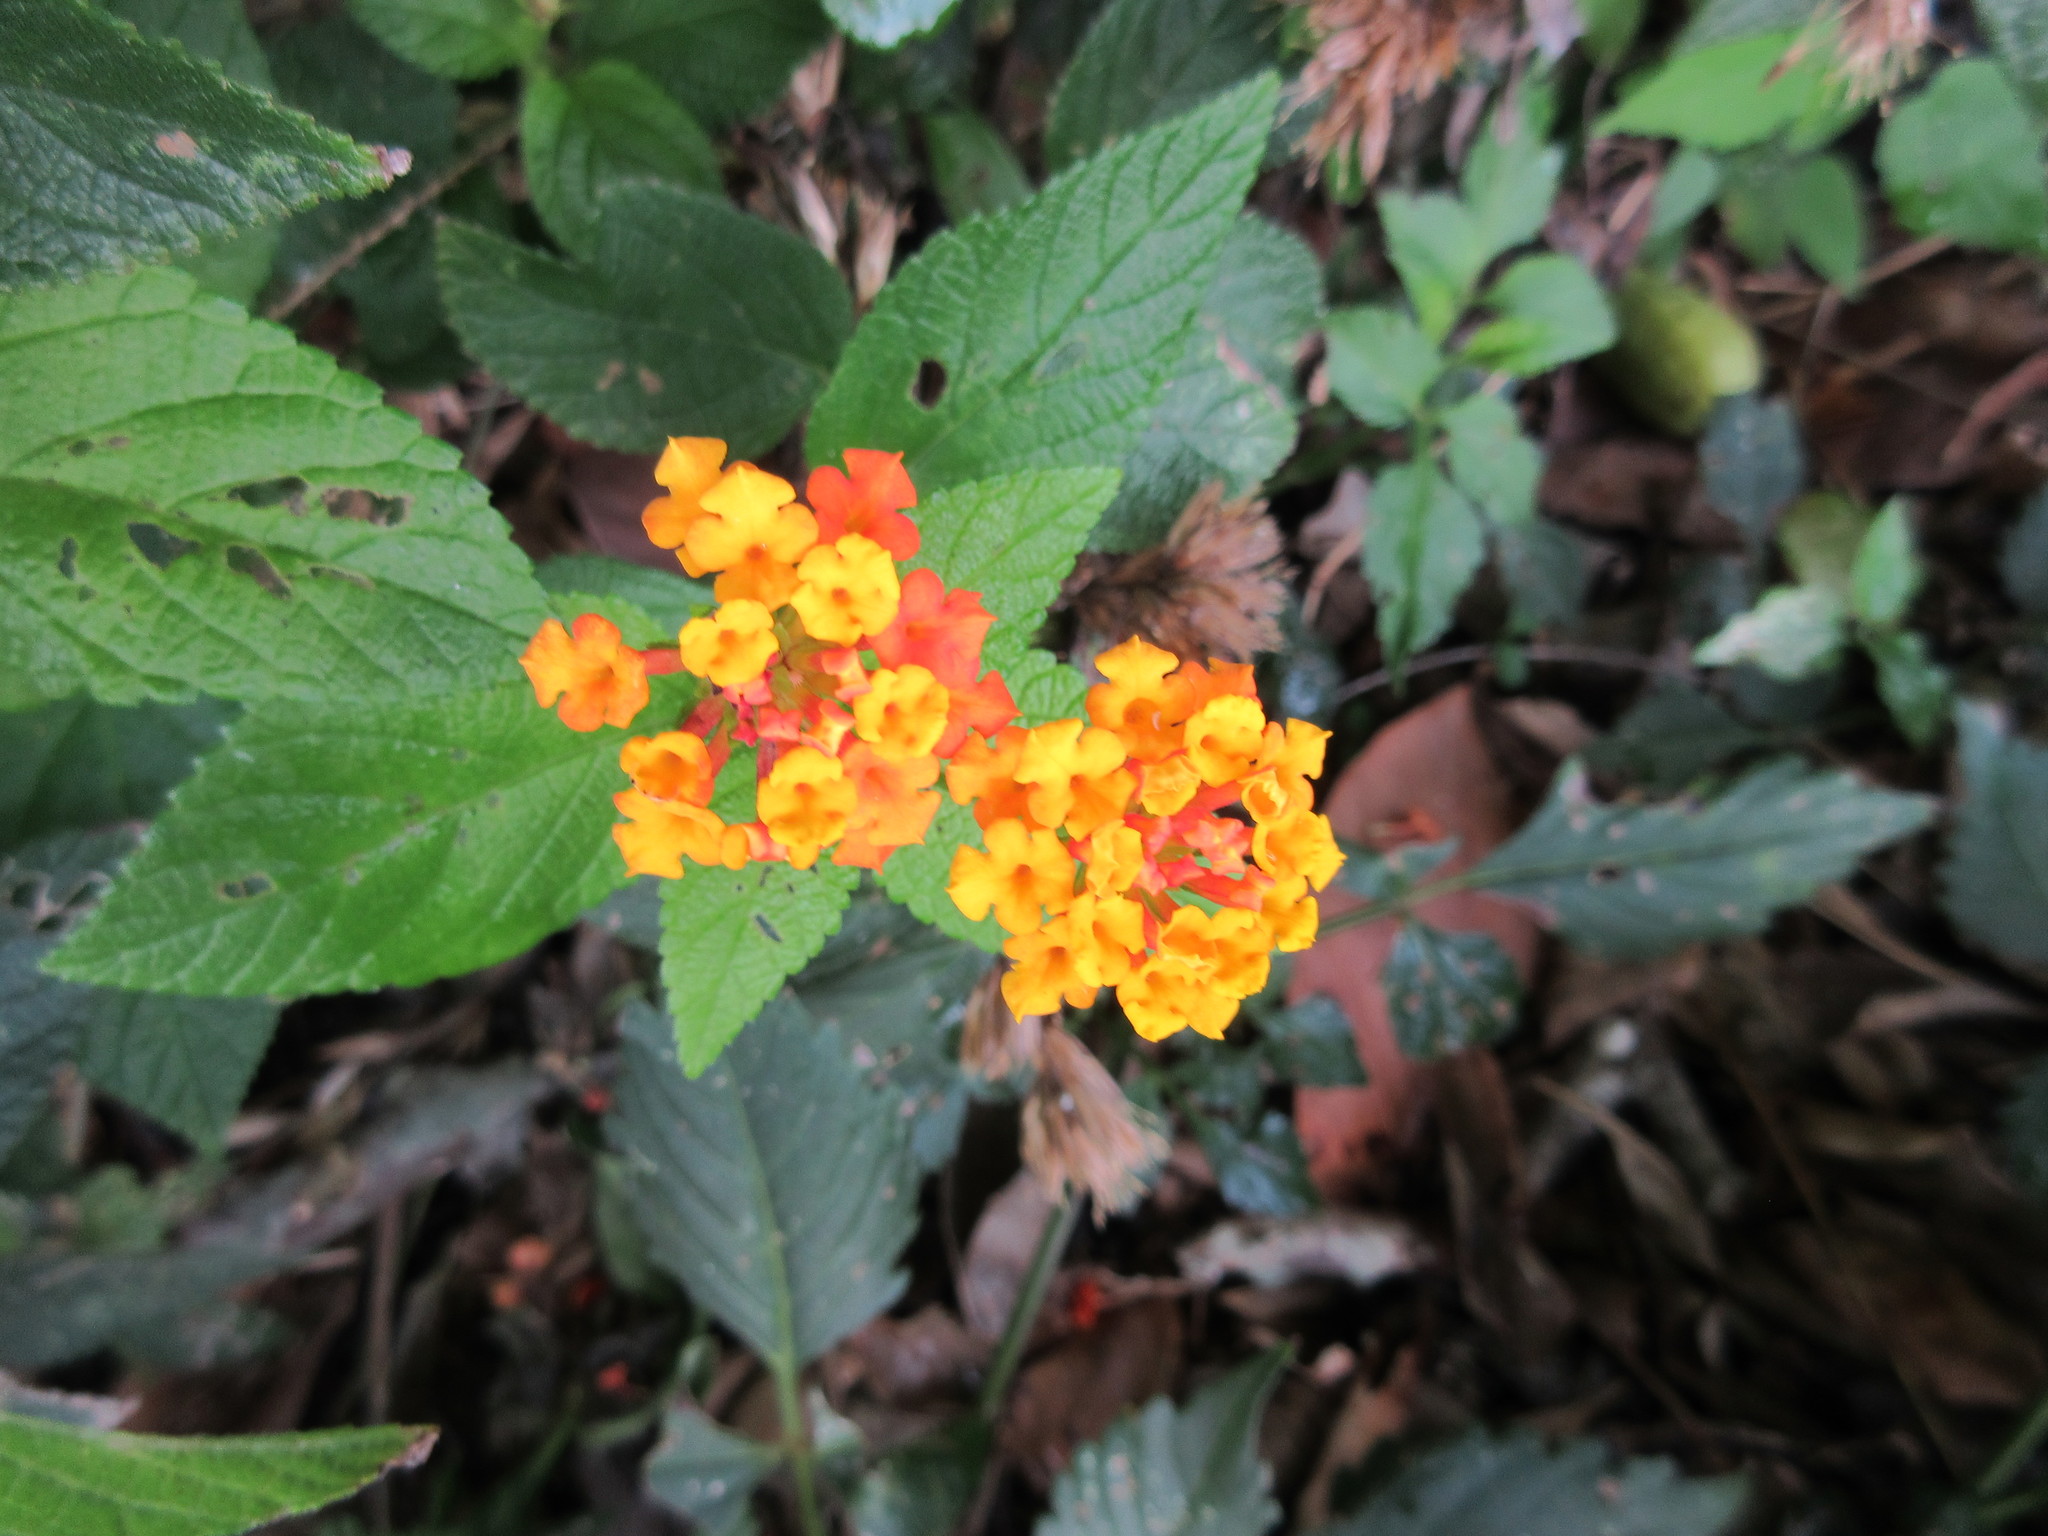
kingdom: Plantae
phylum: Tracheophyta
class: Magnoliopsida
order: Lamiales
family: Verbenaceae
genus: Lantana
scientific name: Lantana camara
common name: Lantana
